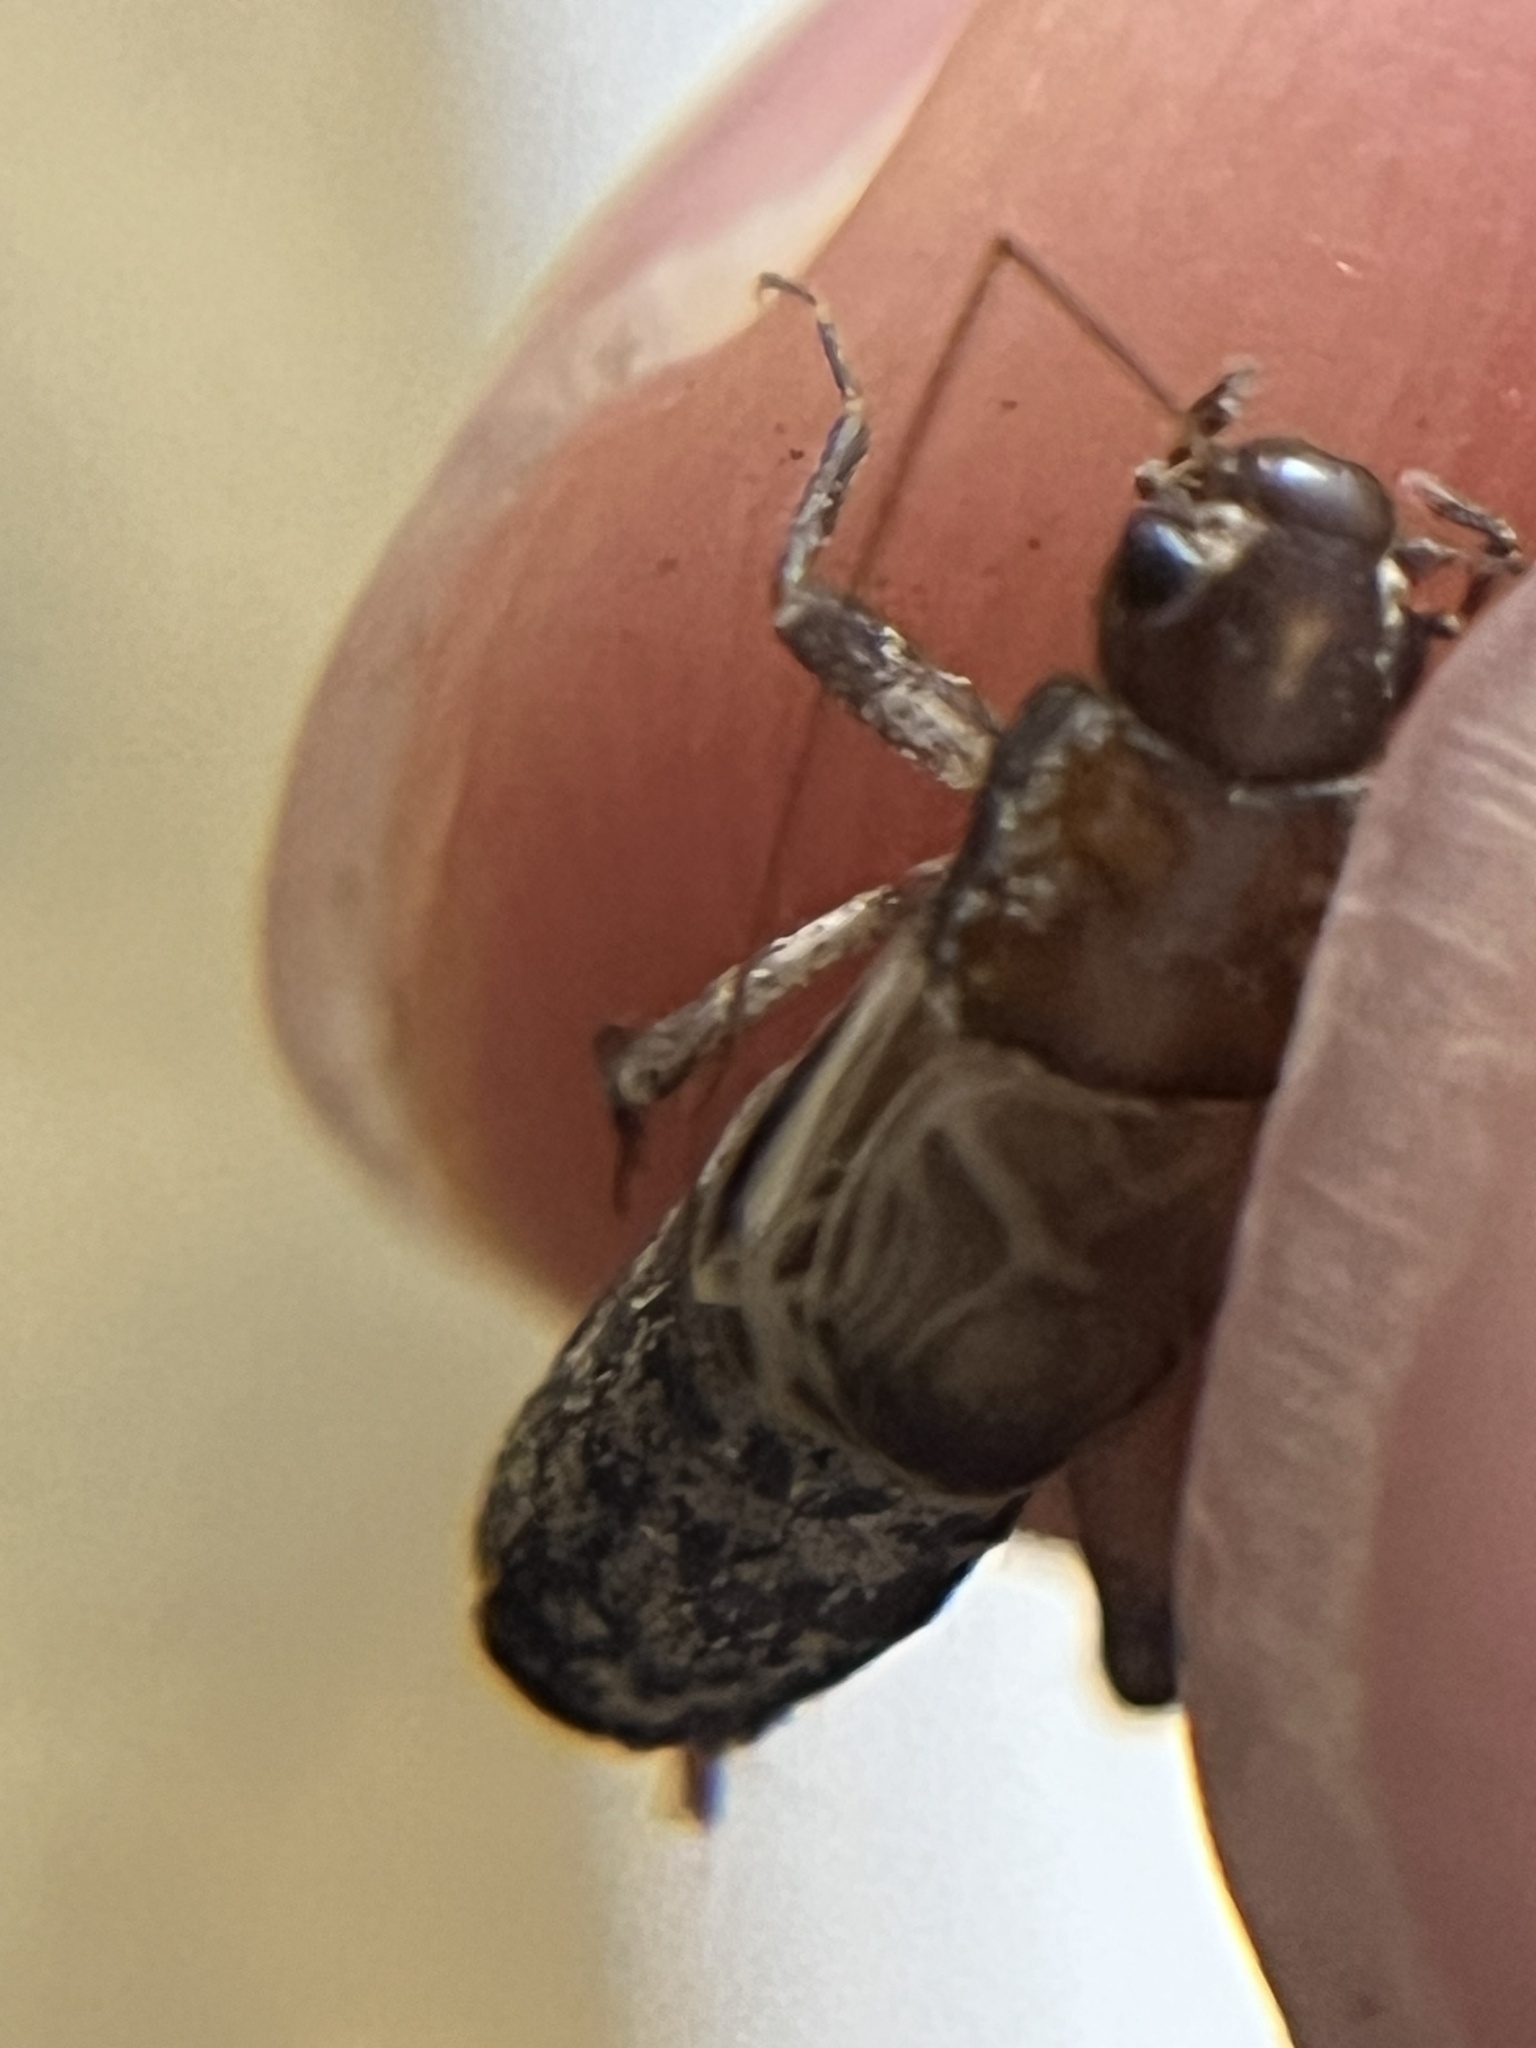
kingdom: Animalia
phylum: Arthropoda
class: Insecta
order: Orthoptera
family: Mogoplistidae
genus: Hoplosphyrum
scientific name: Hoplosphyrum boreale
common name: Long-winged scaly cricket
